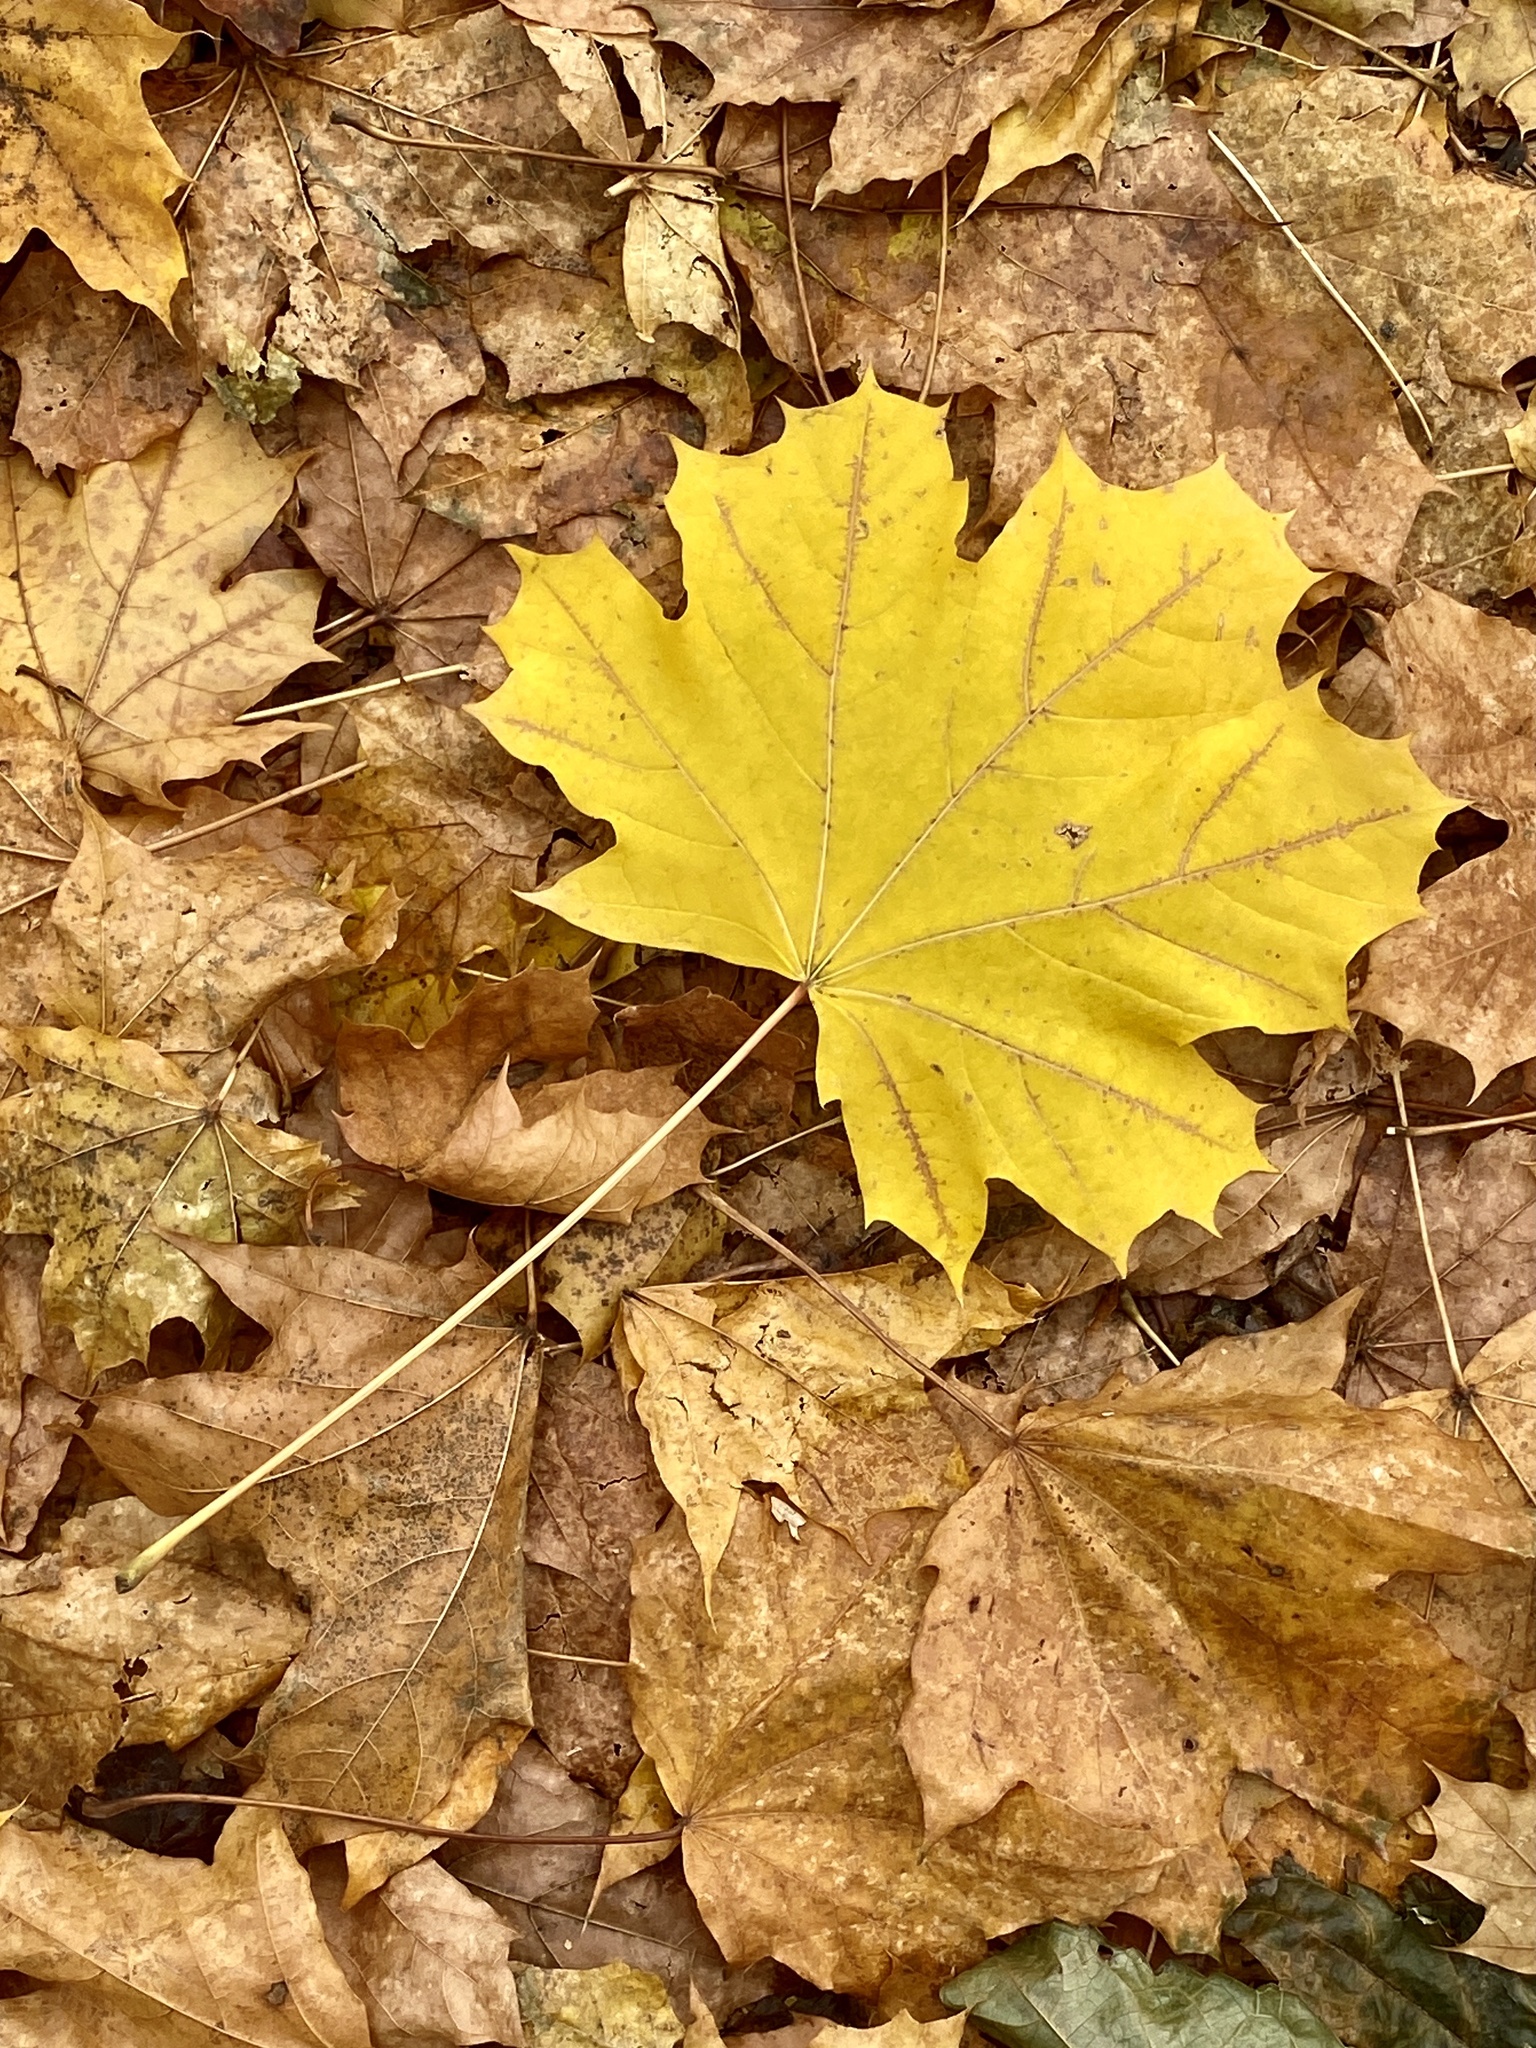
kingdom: Plantae
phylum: Tracheophyta
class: Magnoliopsida
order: Sapindales
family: Sapindaceae
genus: Acer
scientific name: Acer platanoides
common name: Norway maple
